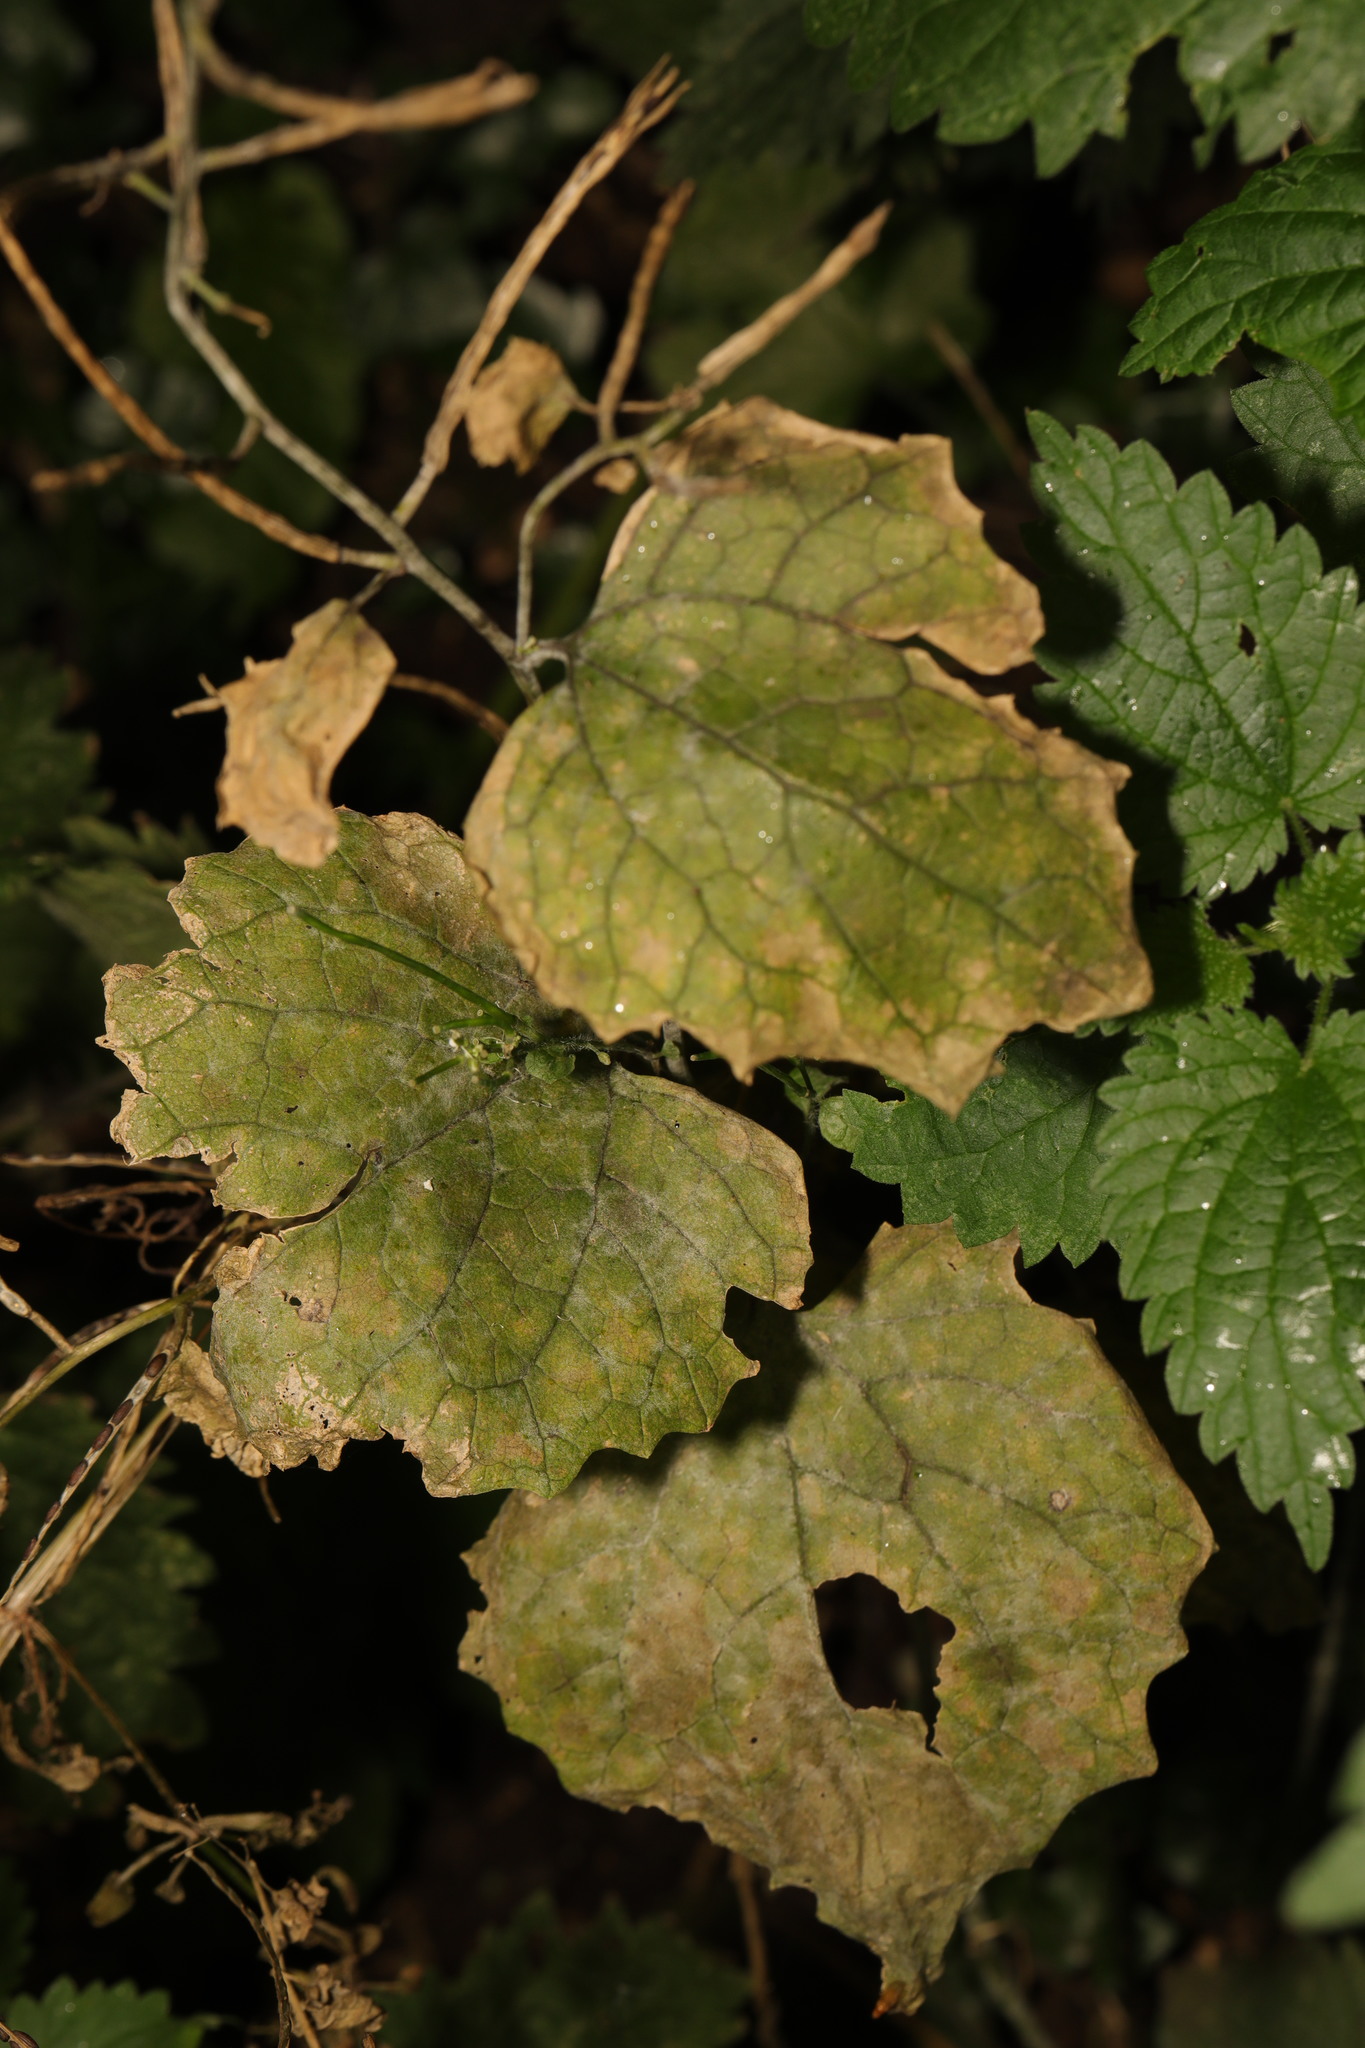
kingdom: Plantae
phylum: Tracheophyta
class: Magnoliopsida
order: Brassicales
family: Brassicaceae
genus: Alliaria
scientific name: Alliaria petiolata
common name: Garlic mustard
